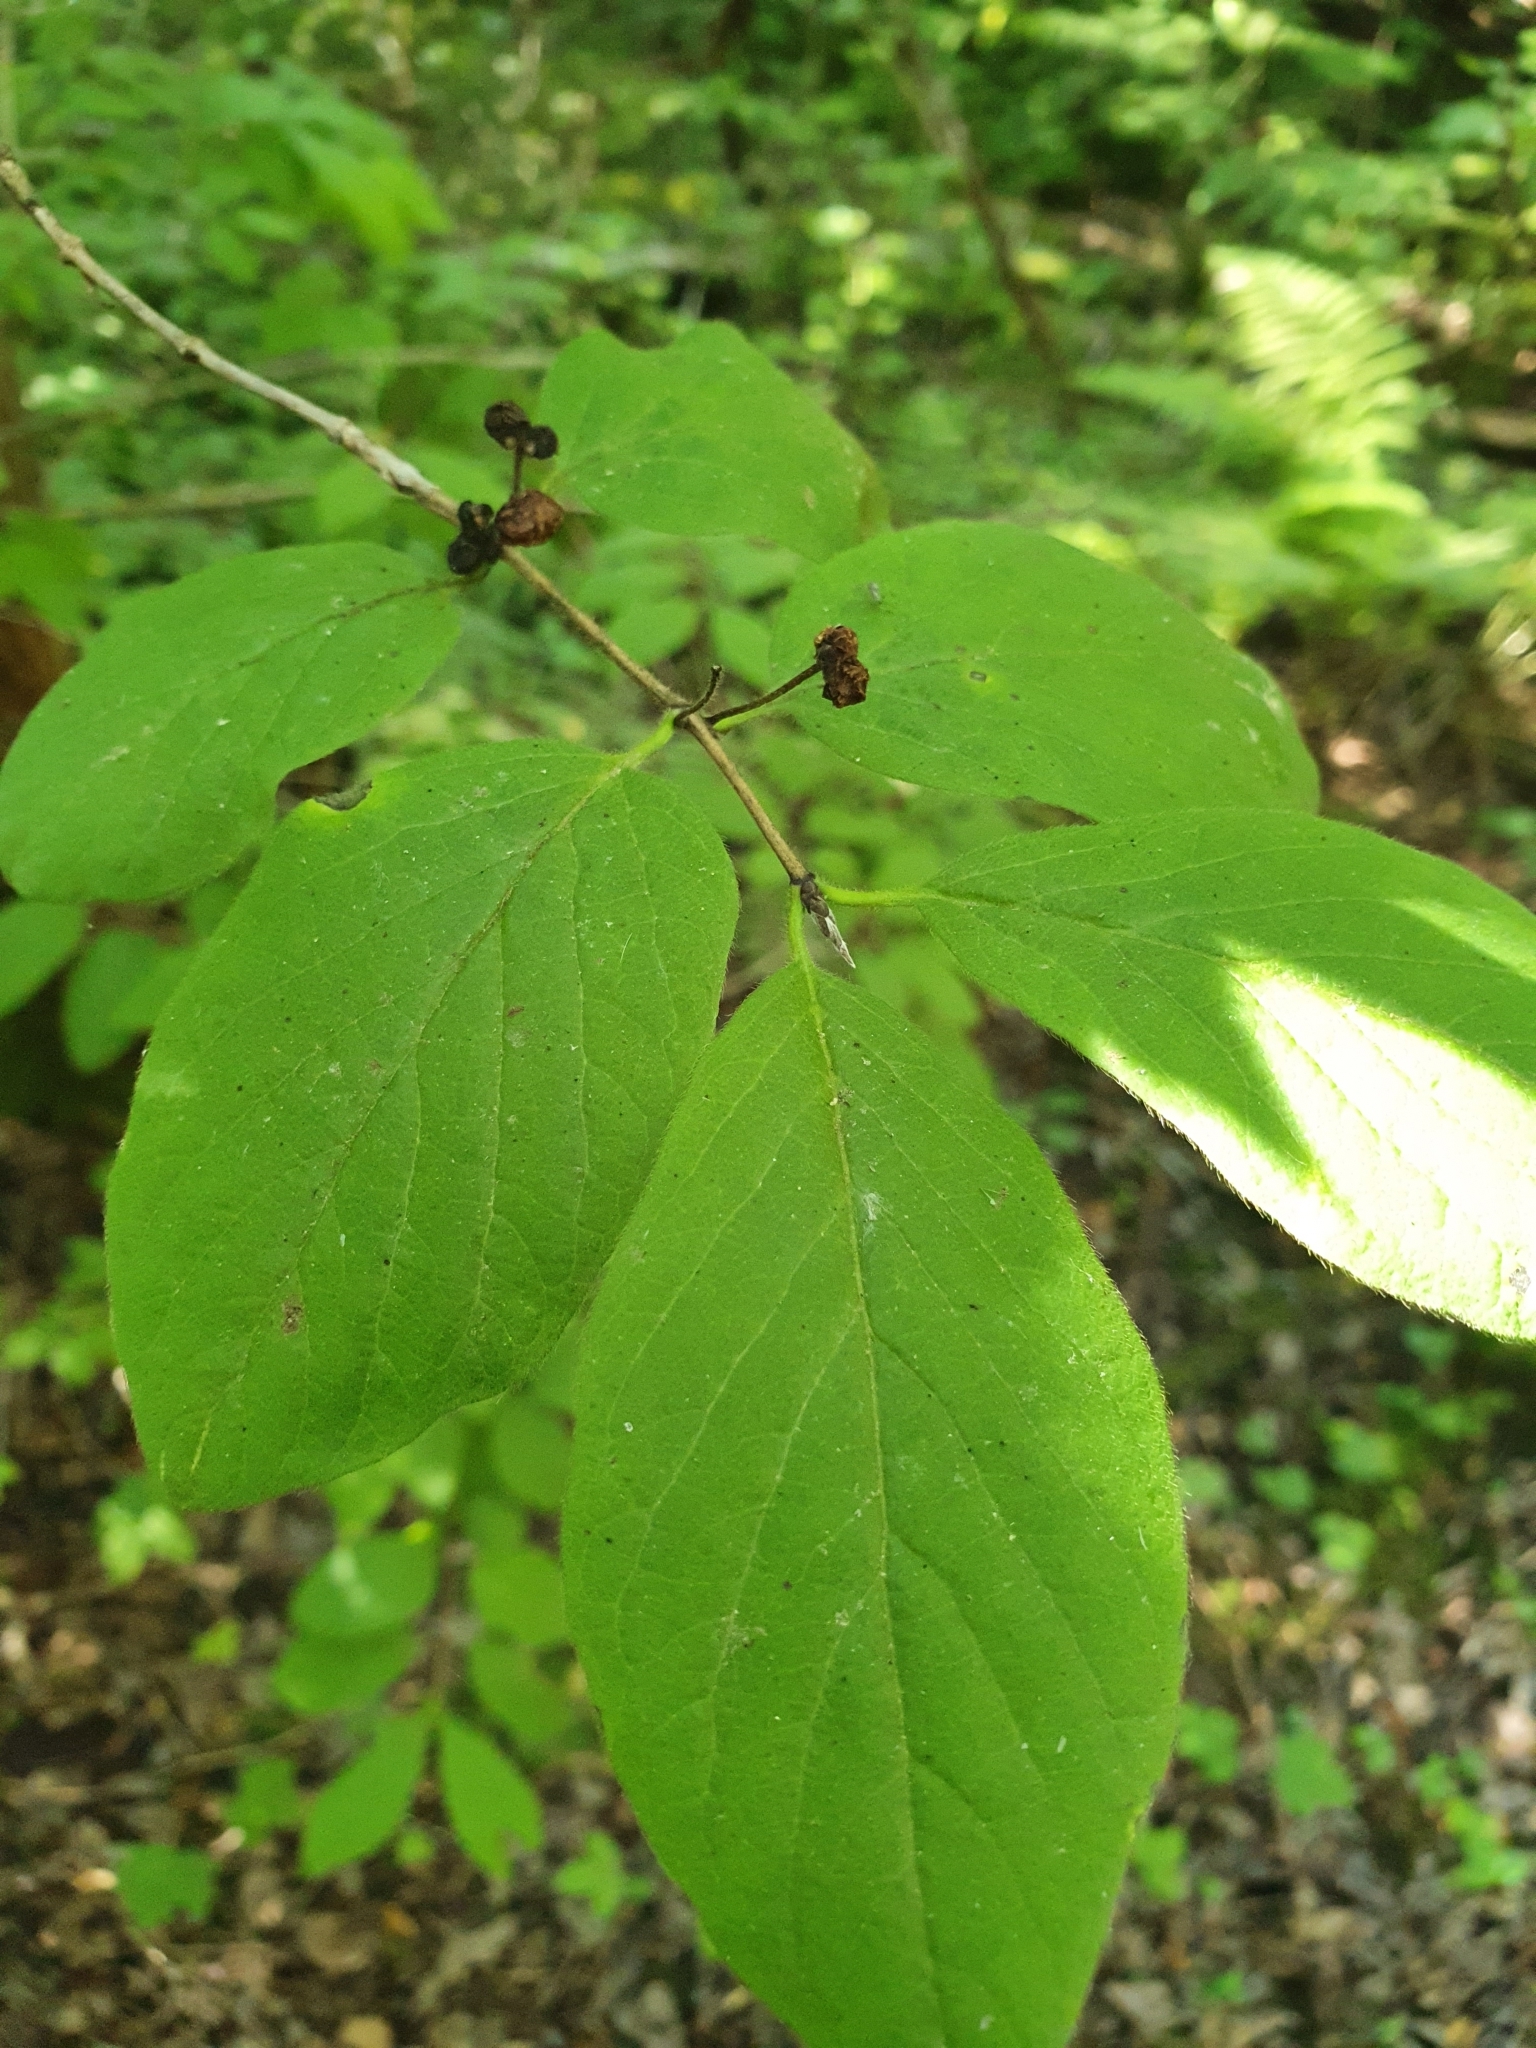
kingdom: Plantae
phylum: Tracheophyta
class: Magnoliopsida
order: Dipsacales
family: Caprifoliaceae
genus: Lonicera
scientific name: Lonicera xylosteum
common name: Fly honeysuckle
